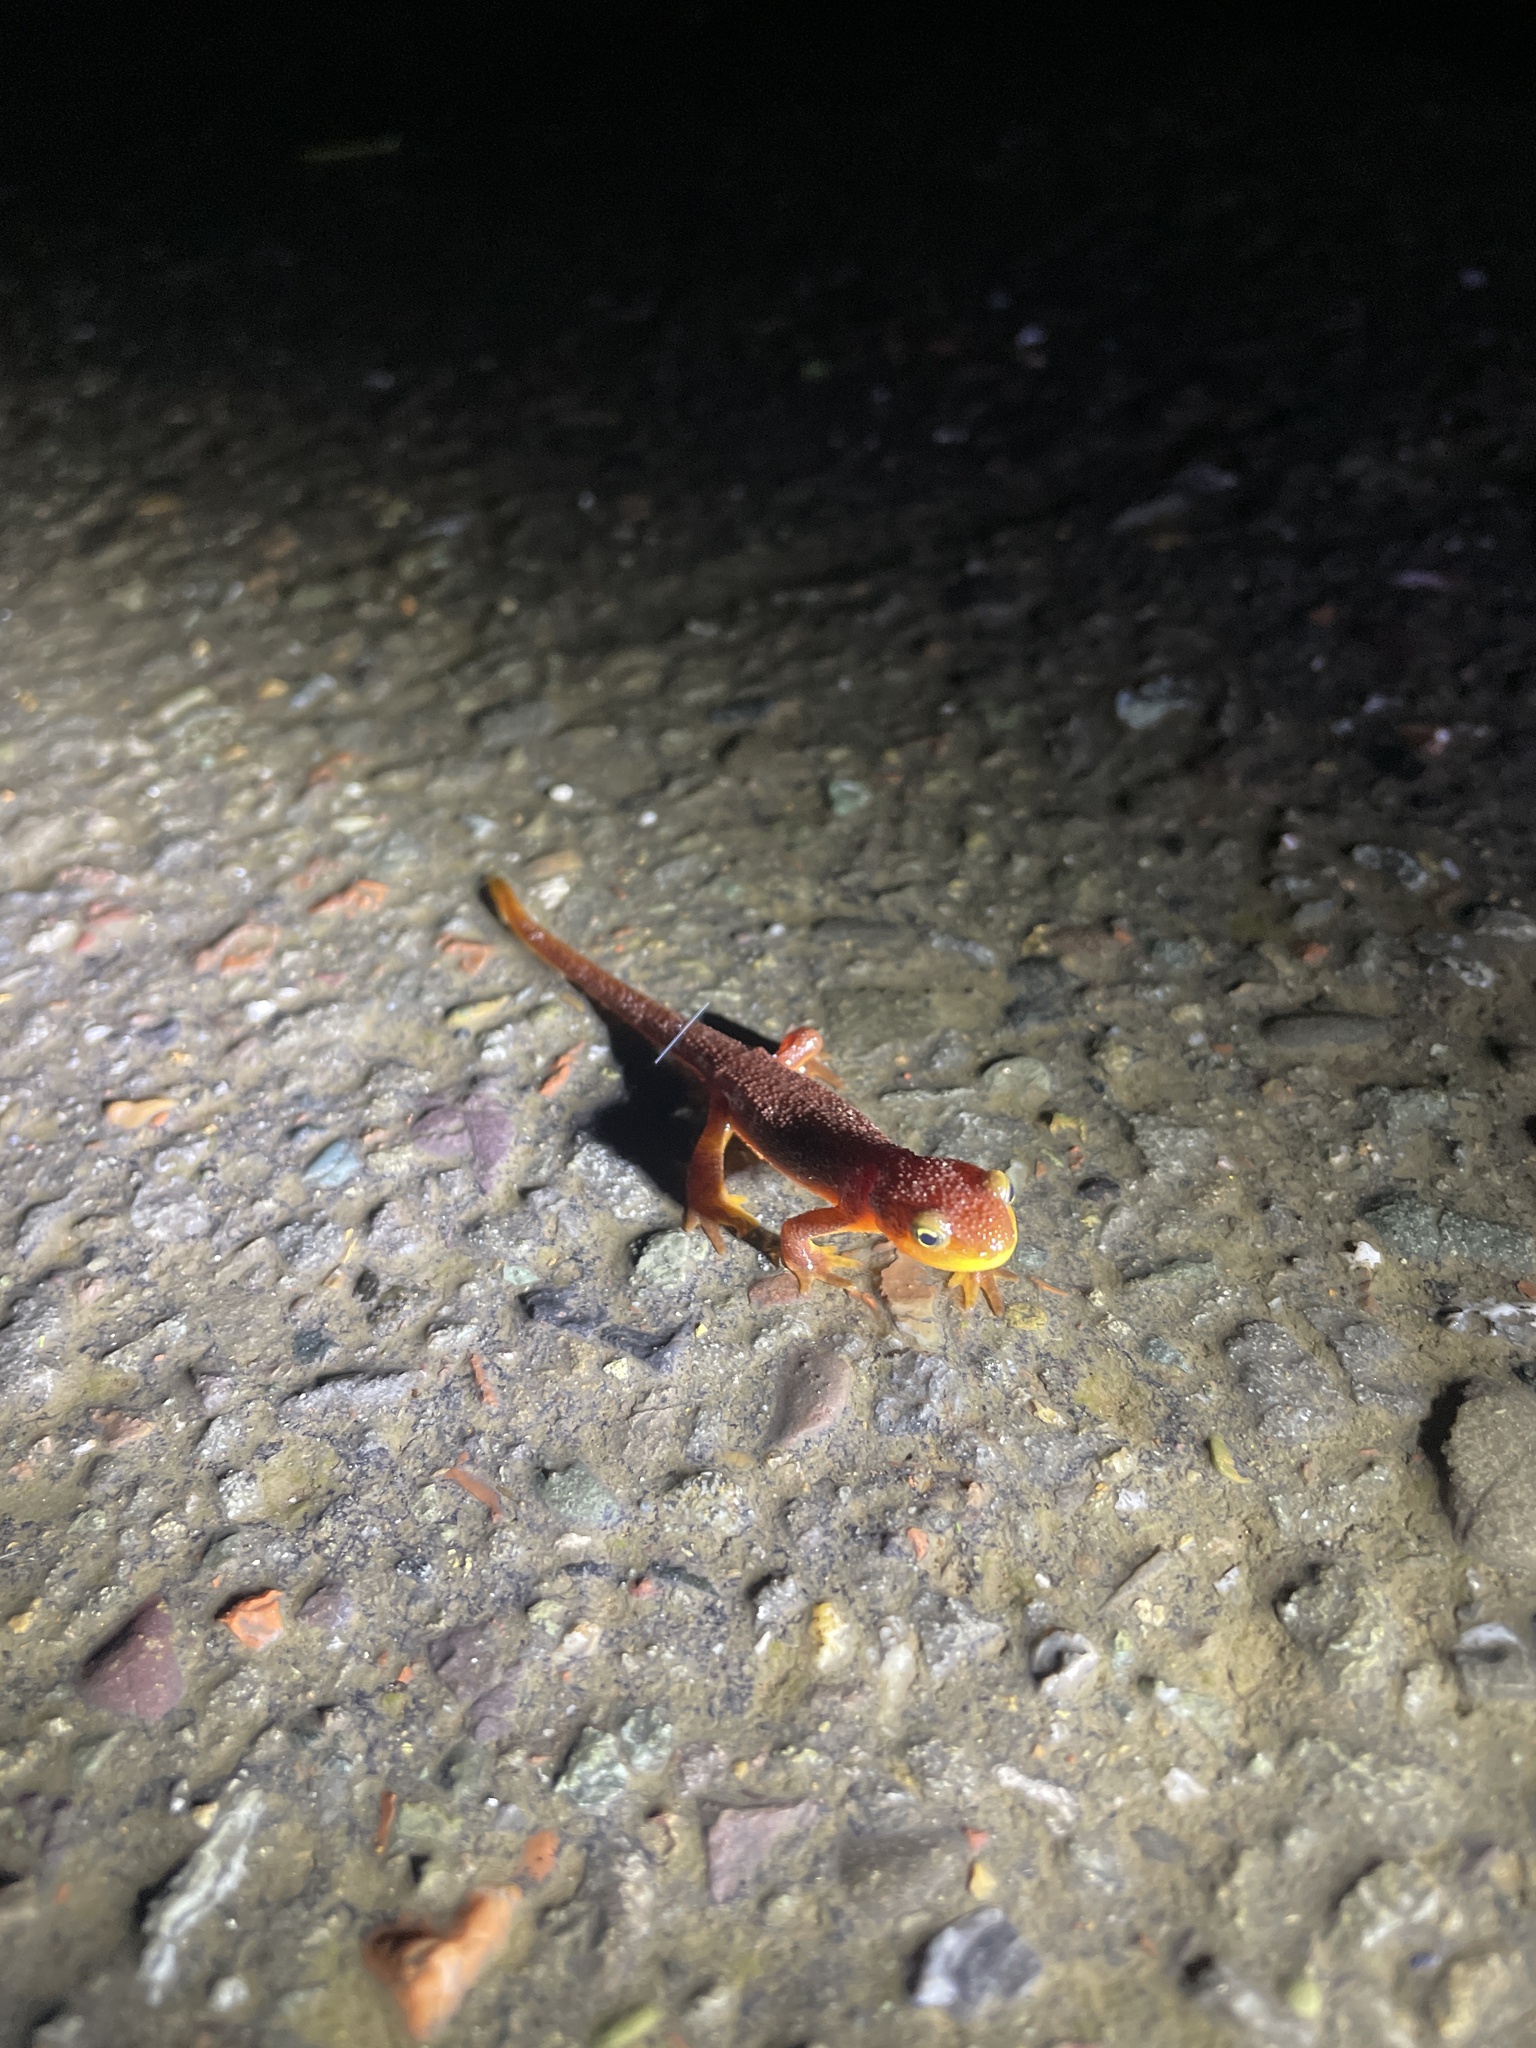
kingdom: Animalia
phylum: Chordata
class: Amphibia
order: Caudata
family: Salamandridae
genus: Taricha
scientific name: Taricha torosa
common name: California newt
